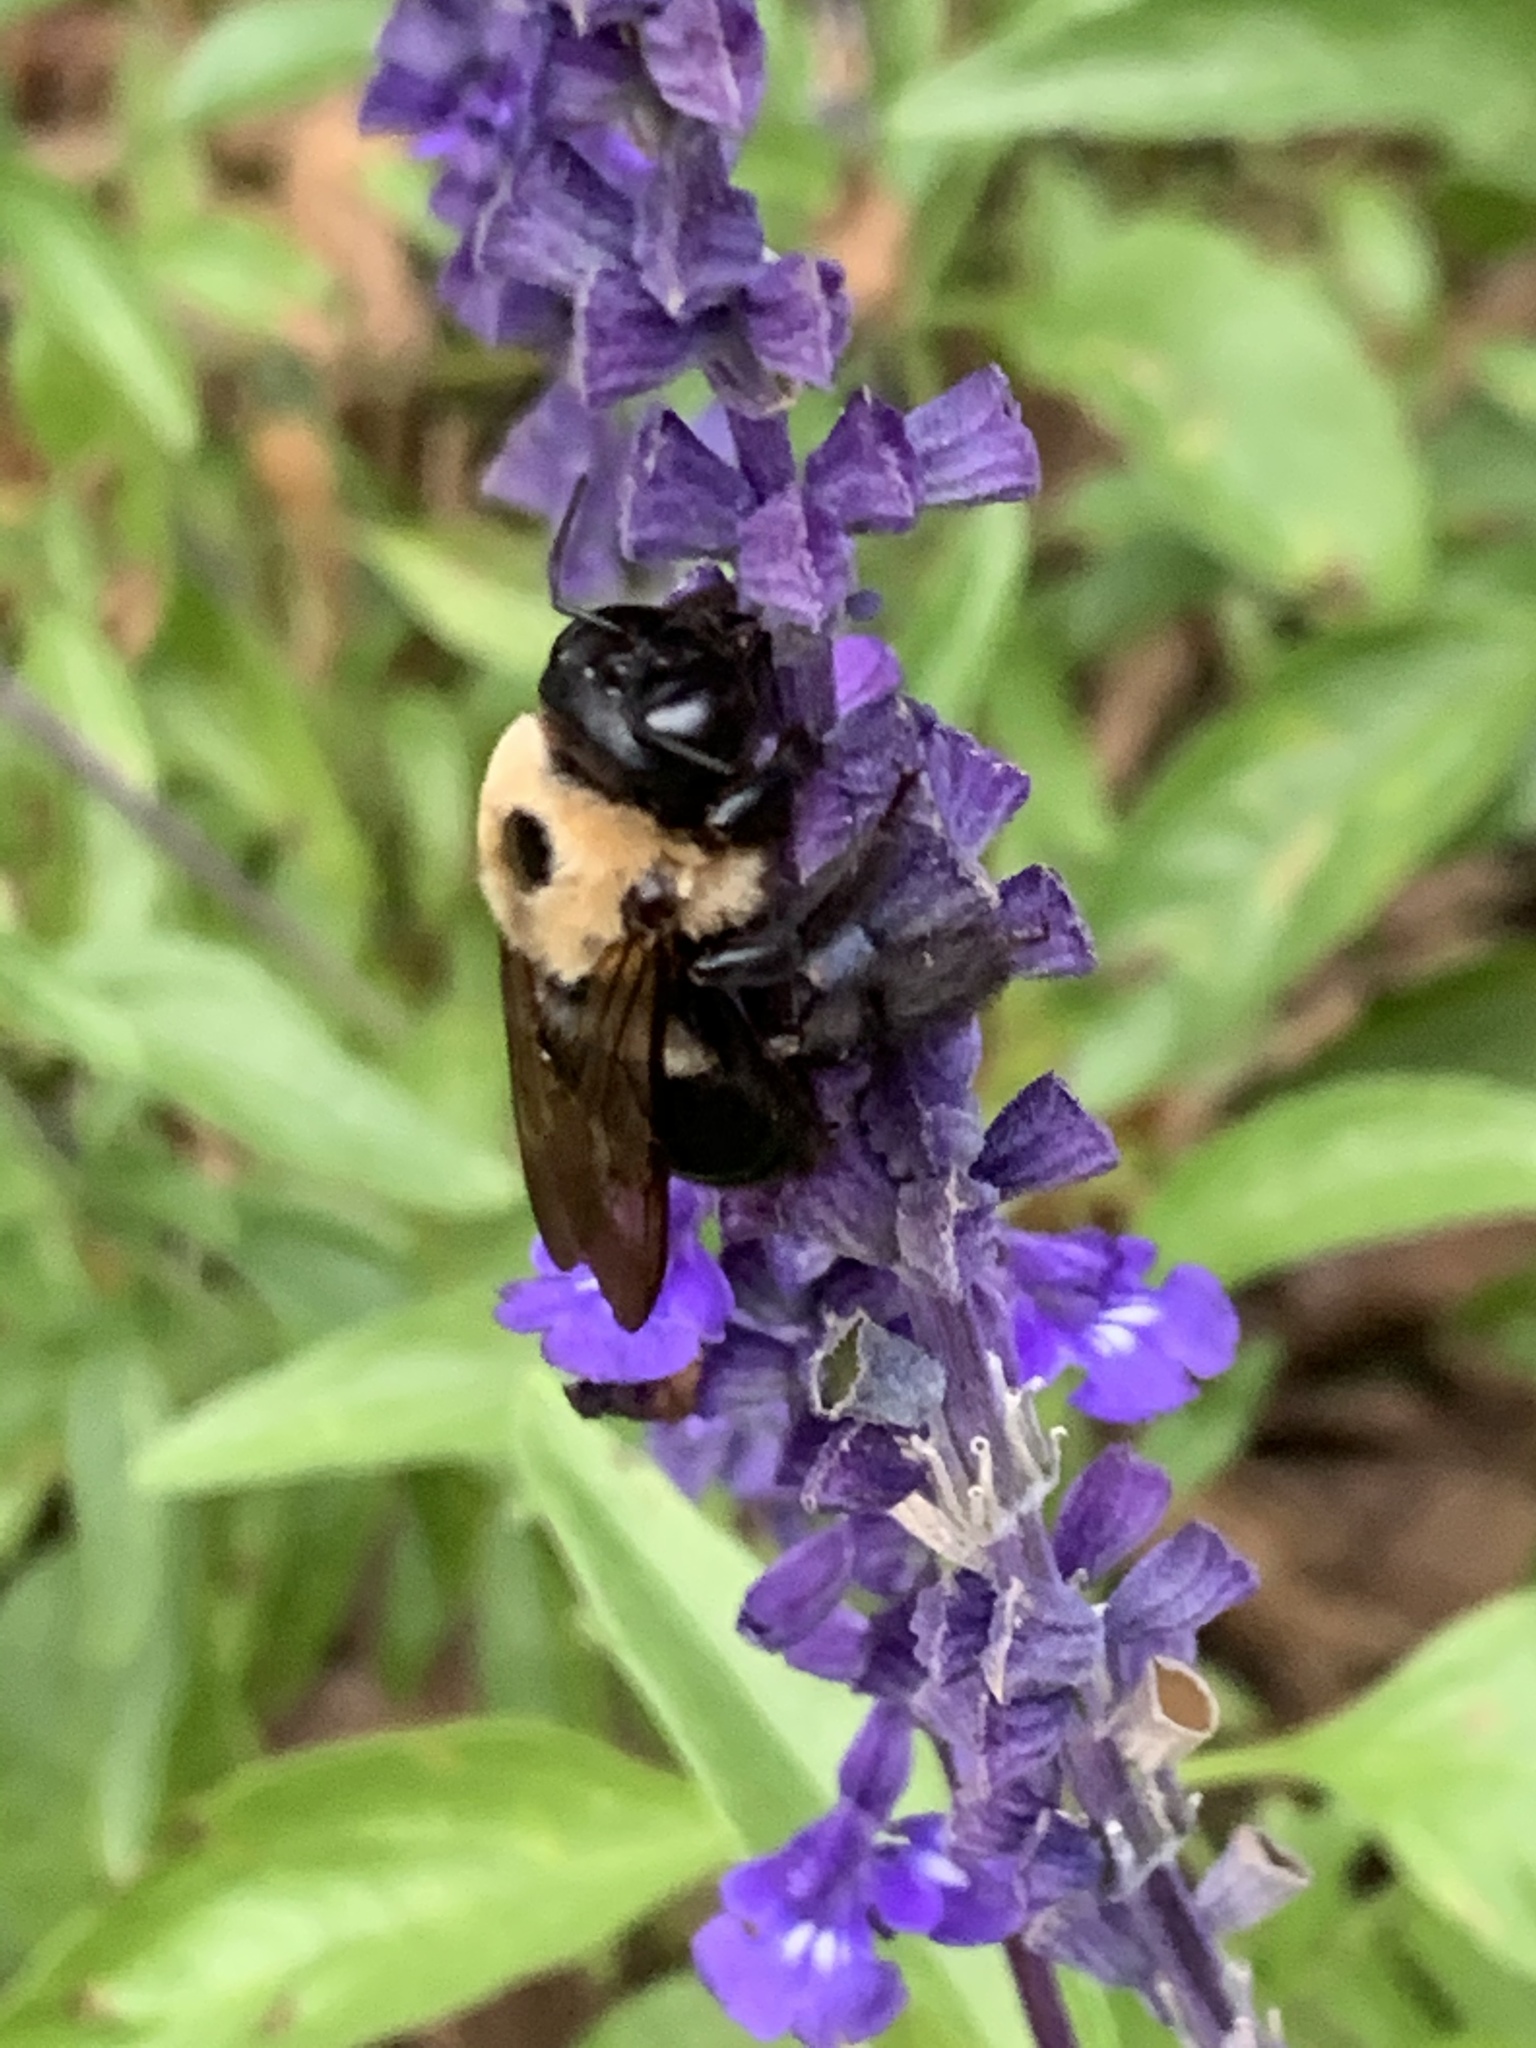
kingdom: Animalia
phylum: Arthropoda
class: Insecta
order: Hymenoptera
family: Apidae
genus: Xylocopa
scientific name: Xylocopa virginica
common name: Carpenter bee
